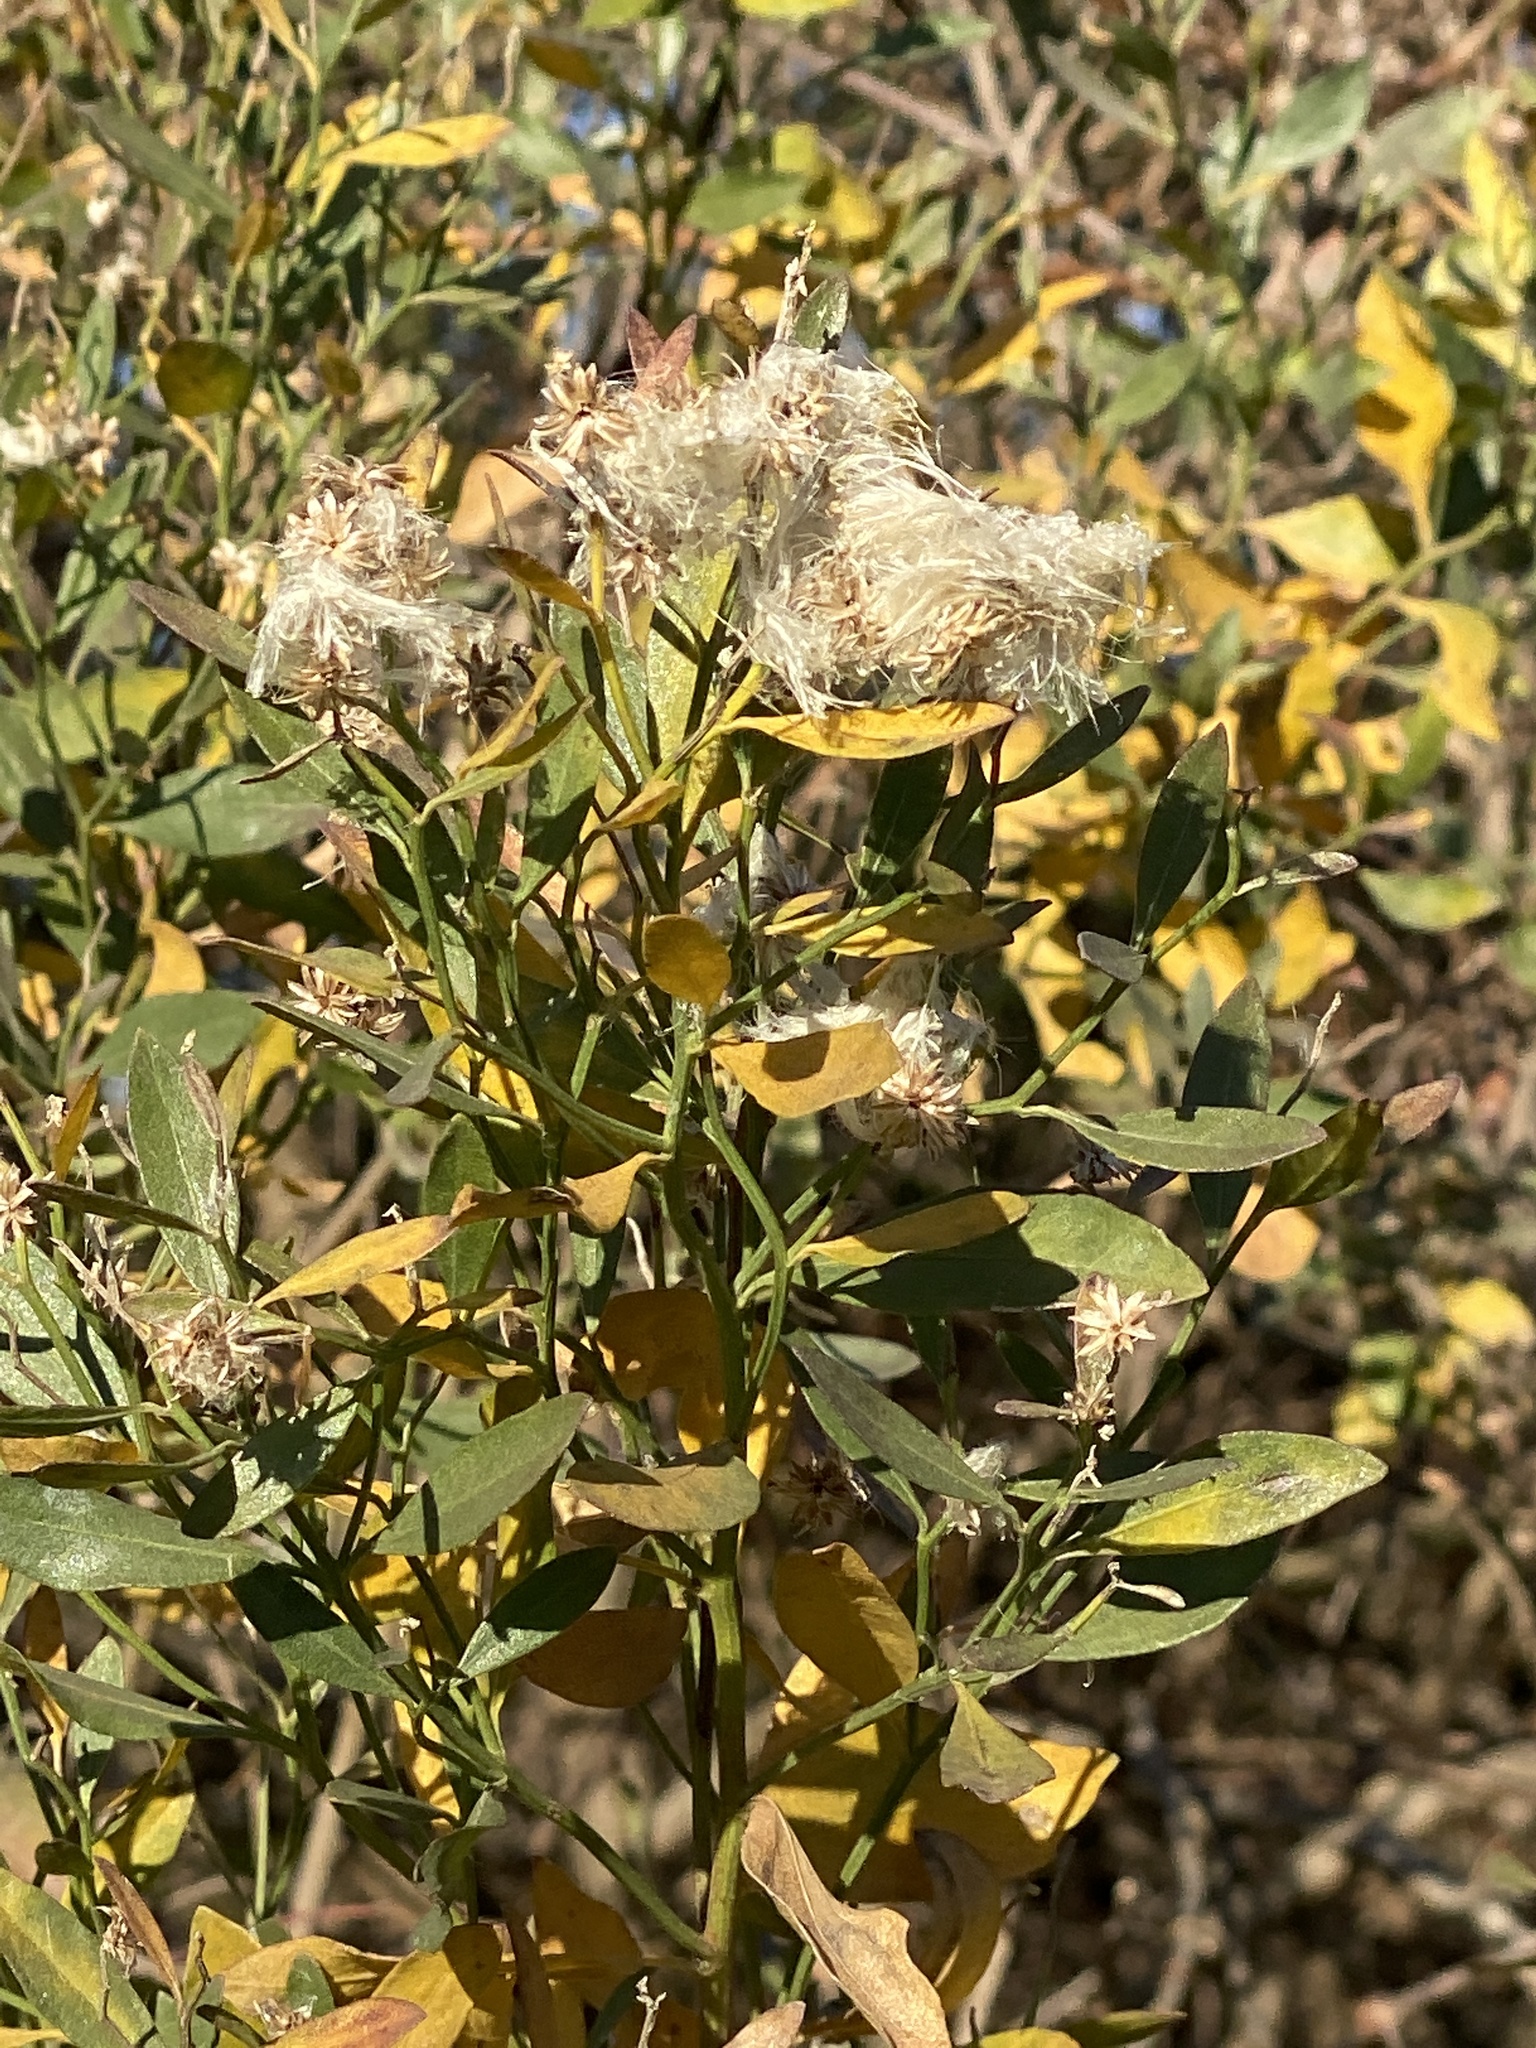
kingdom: Plantae
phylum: Tracheophyta
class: Magnoliopsida
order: Asterales
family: Asteraceae
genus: Baccharis
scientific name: Baccharis halimifolia
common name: Eastern baccharis
